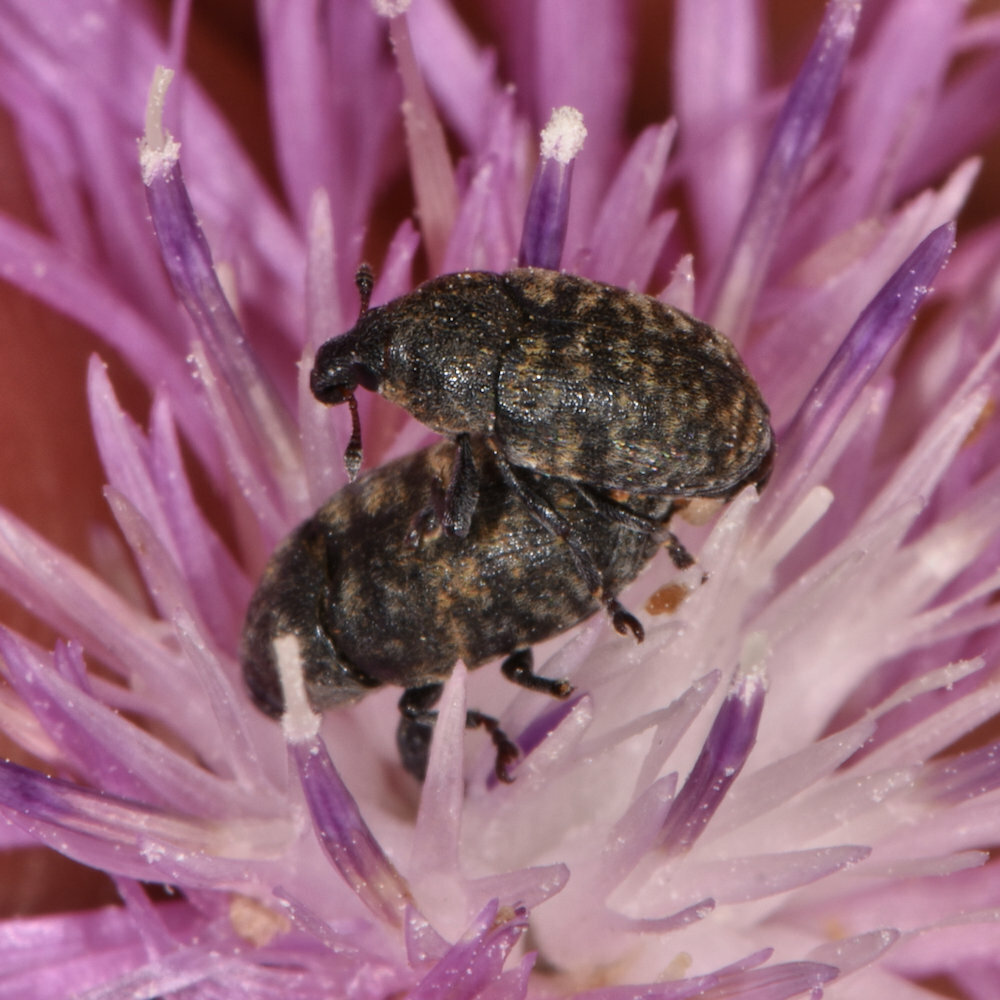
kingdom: Animalia
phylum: Arthropoda
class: Insecta
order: Coleoptera
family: Curculionidae
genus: Larinus
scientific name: Larinus obtusus
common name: Weevil
